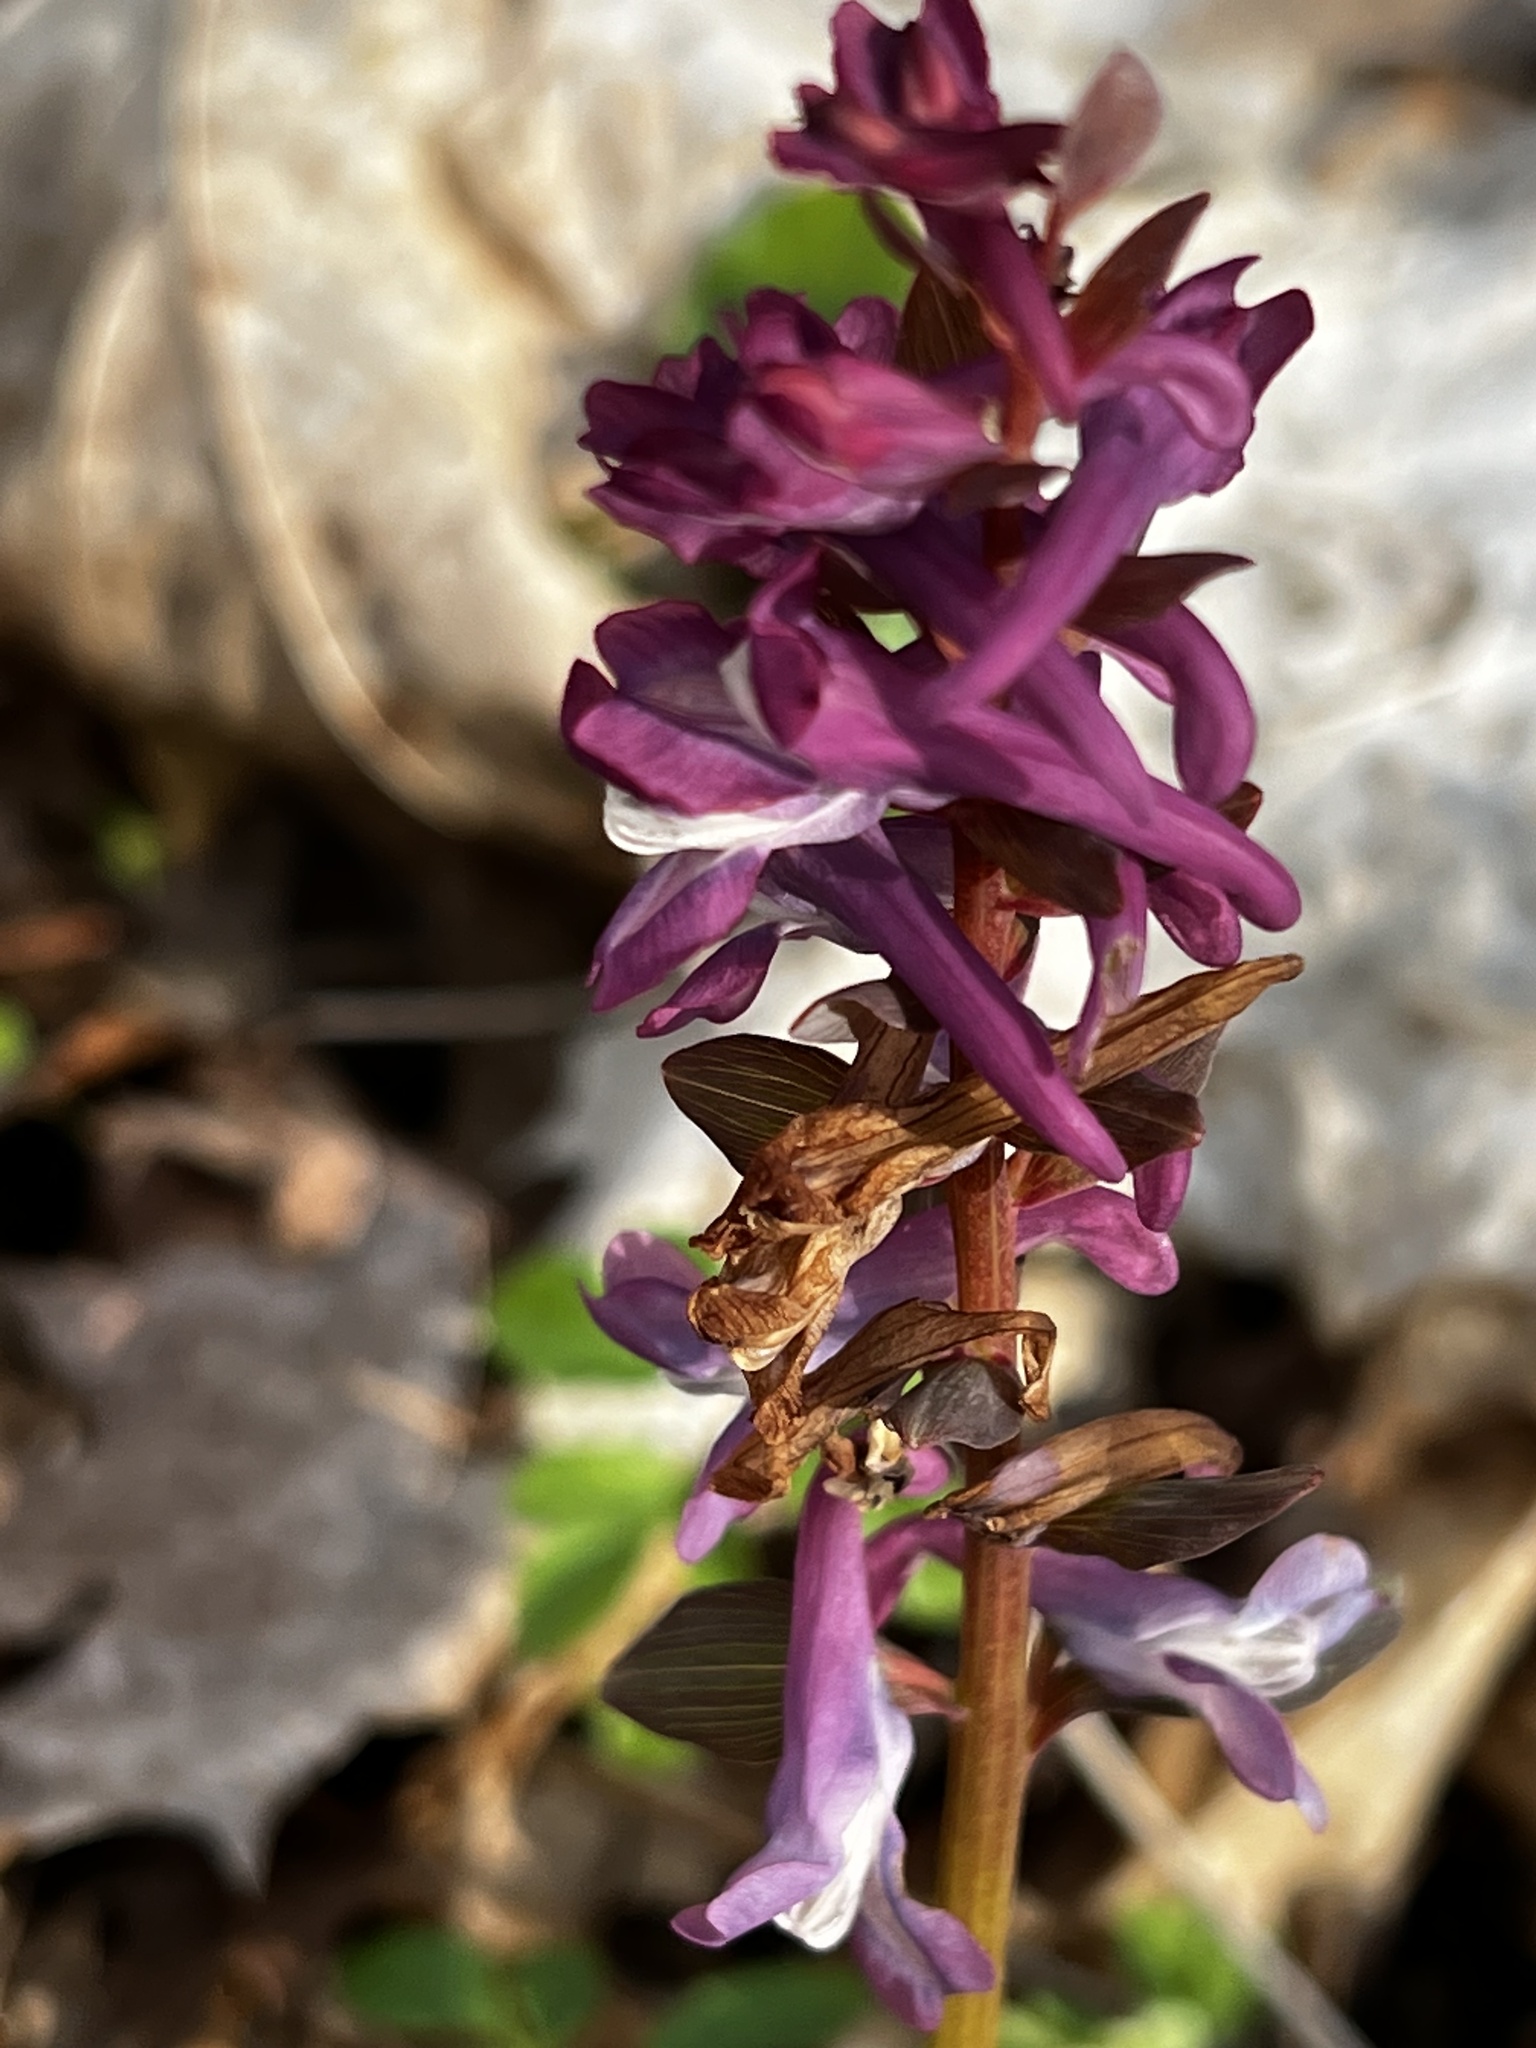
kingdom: Plantae
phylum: Tracheophyta
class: Magnoliopsida
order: Ranunculales
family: Papaveraceae
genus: Corydalis
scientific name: Corydalis cava
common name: Hollowroot
